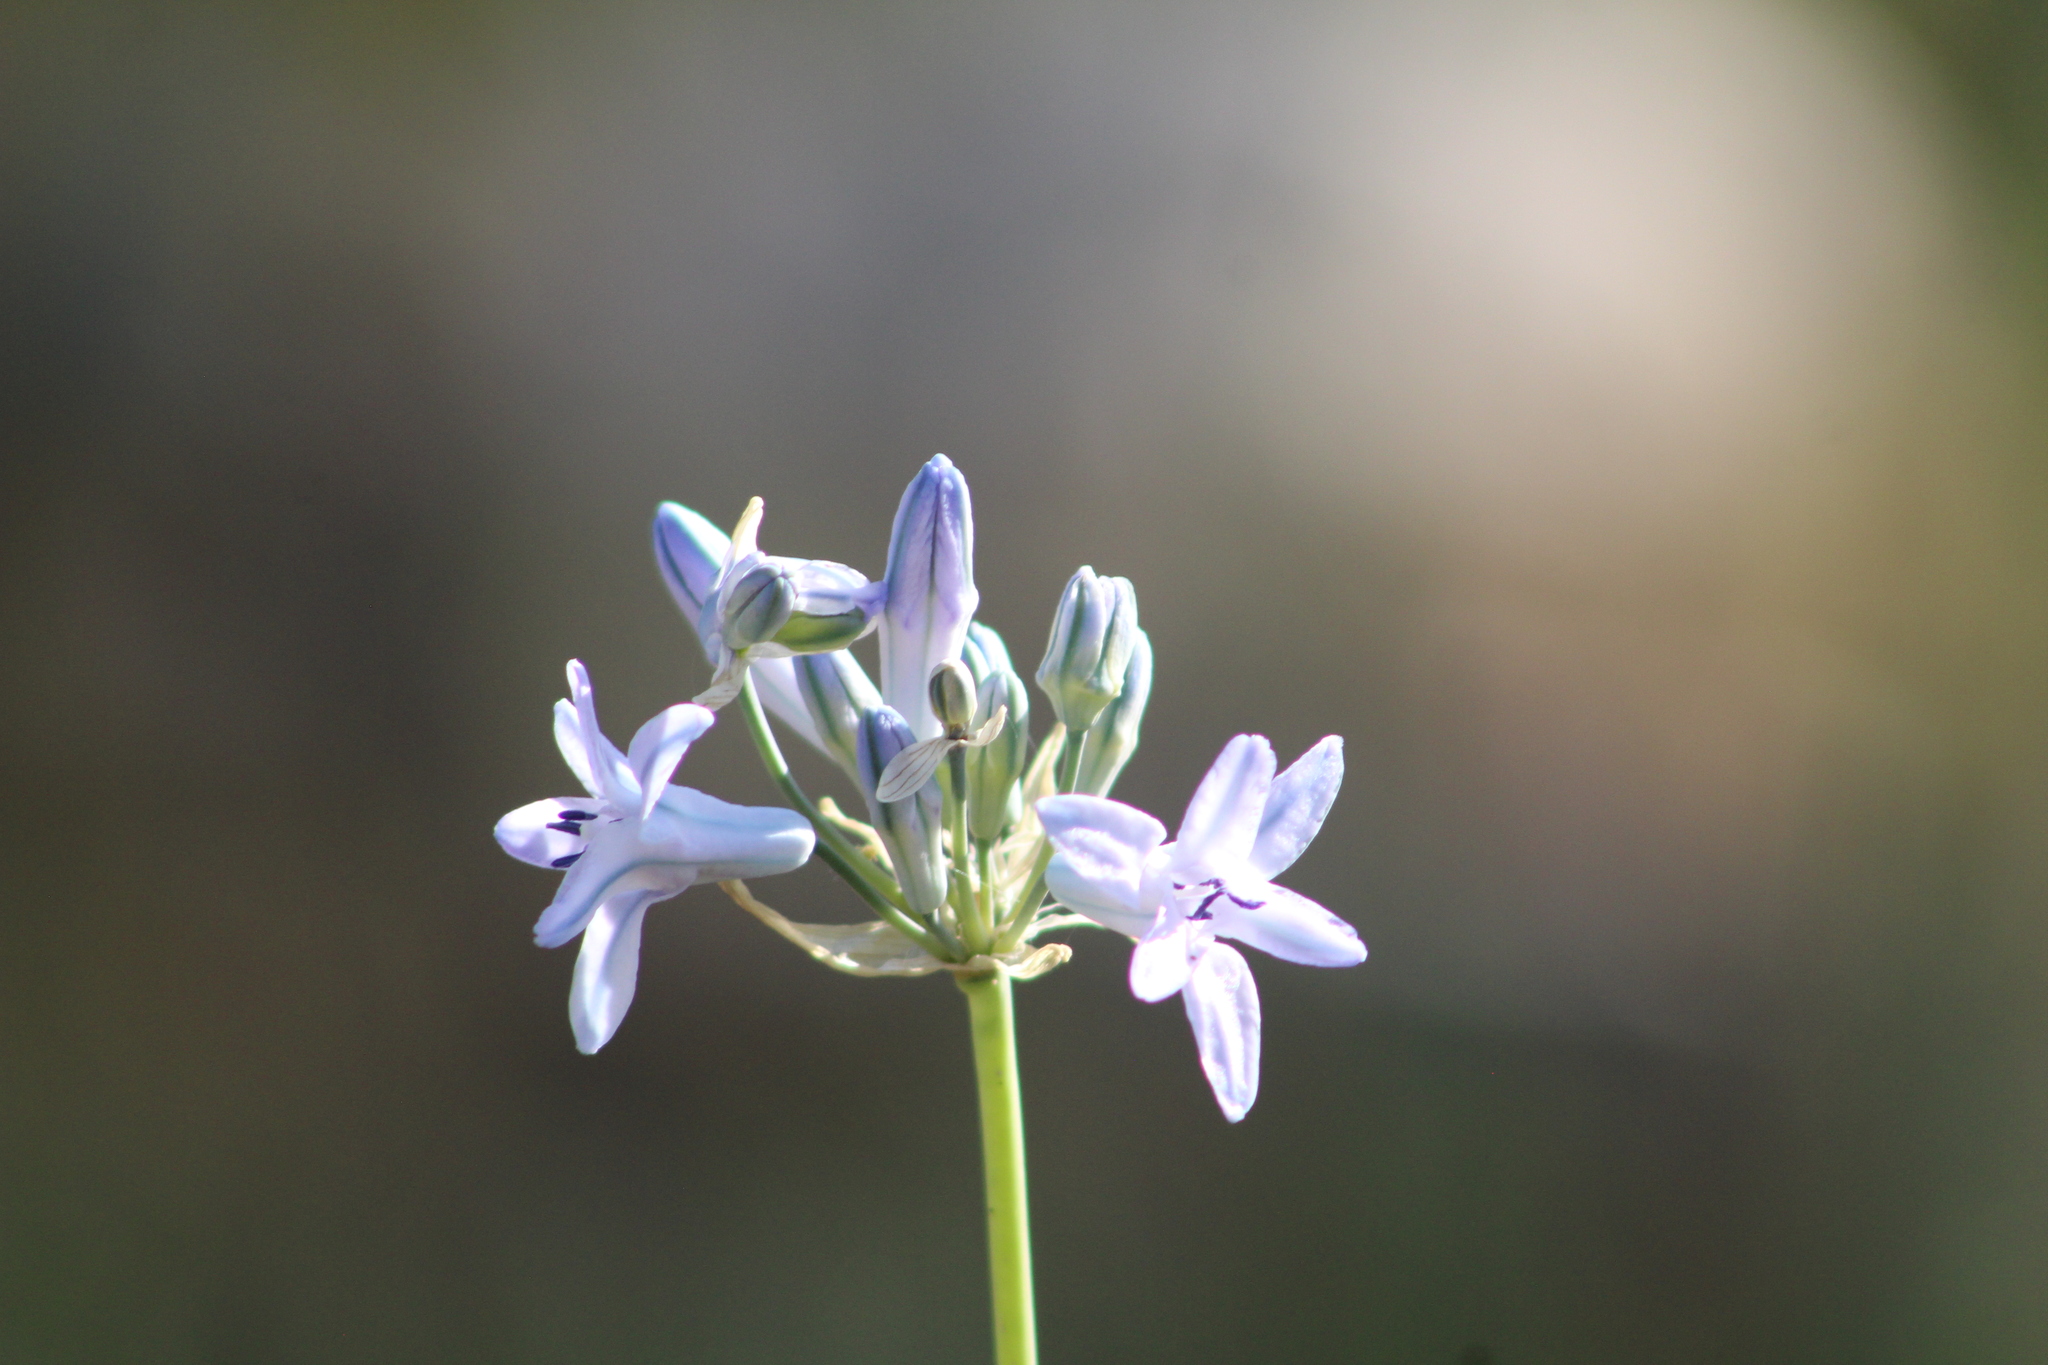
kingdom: Plantae
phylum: Tracheophyta
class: Liliopsida
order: Asparagales
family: Asparagaceae
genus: Triteleia
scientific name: Triteleia grandiflora
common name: Wild hyacinth
